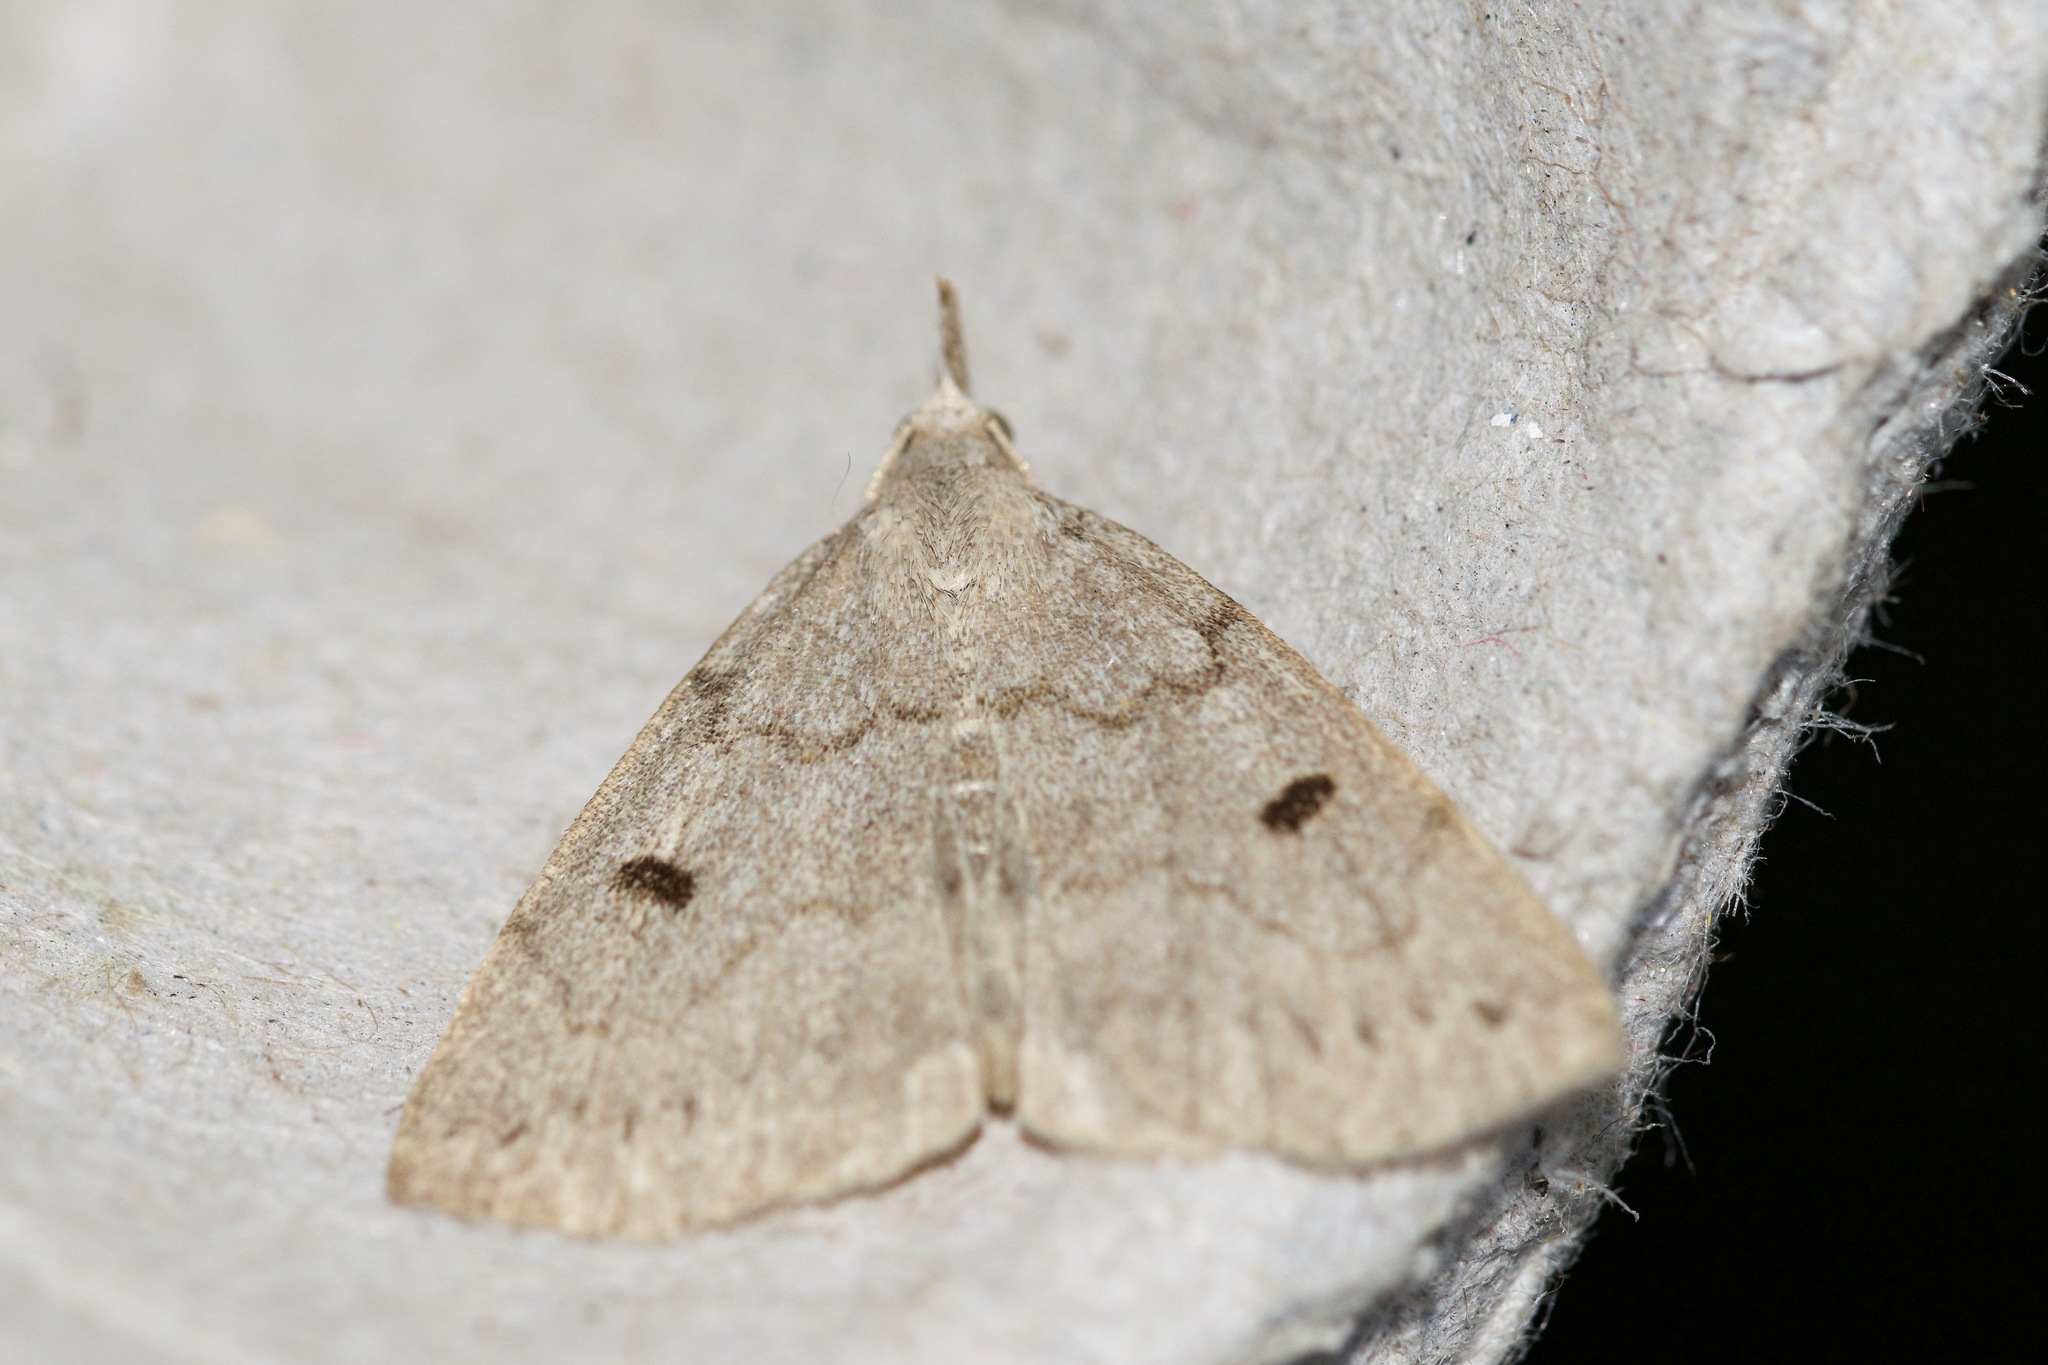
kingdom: Animalia
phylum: Arthropoda
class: Insecta
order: Lepidoptera
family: Erebidae
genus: Macrochilo
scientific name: Macrochilo morbidalis
